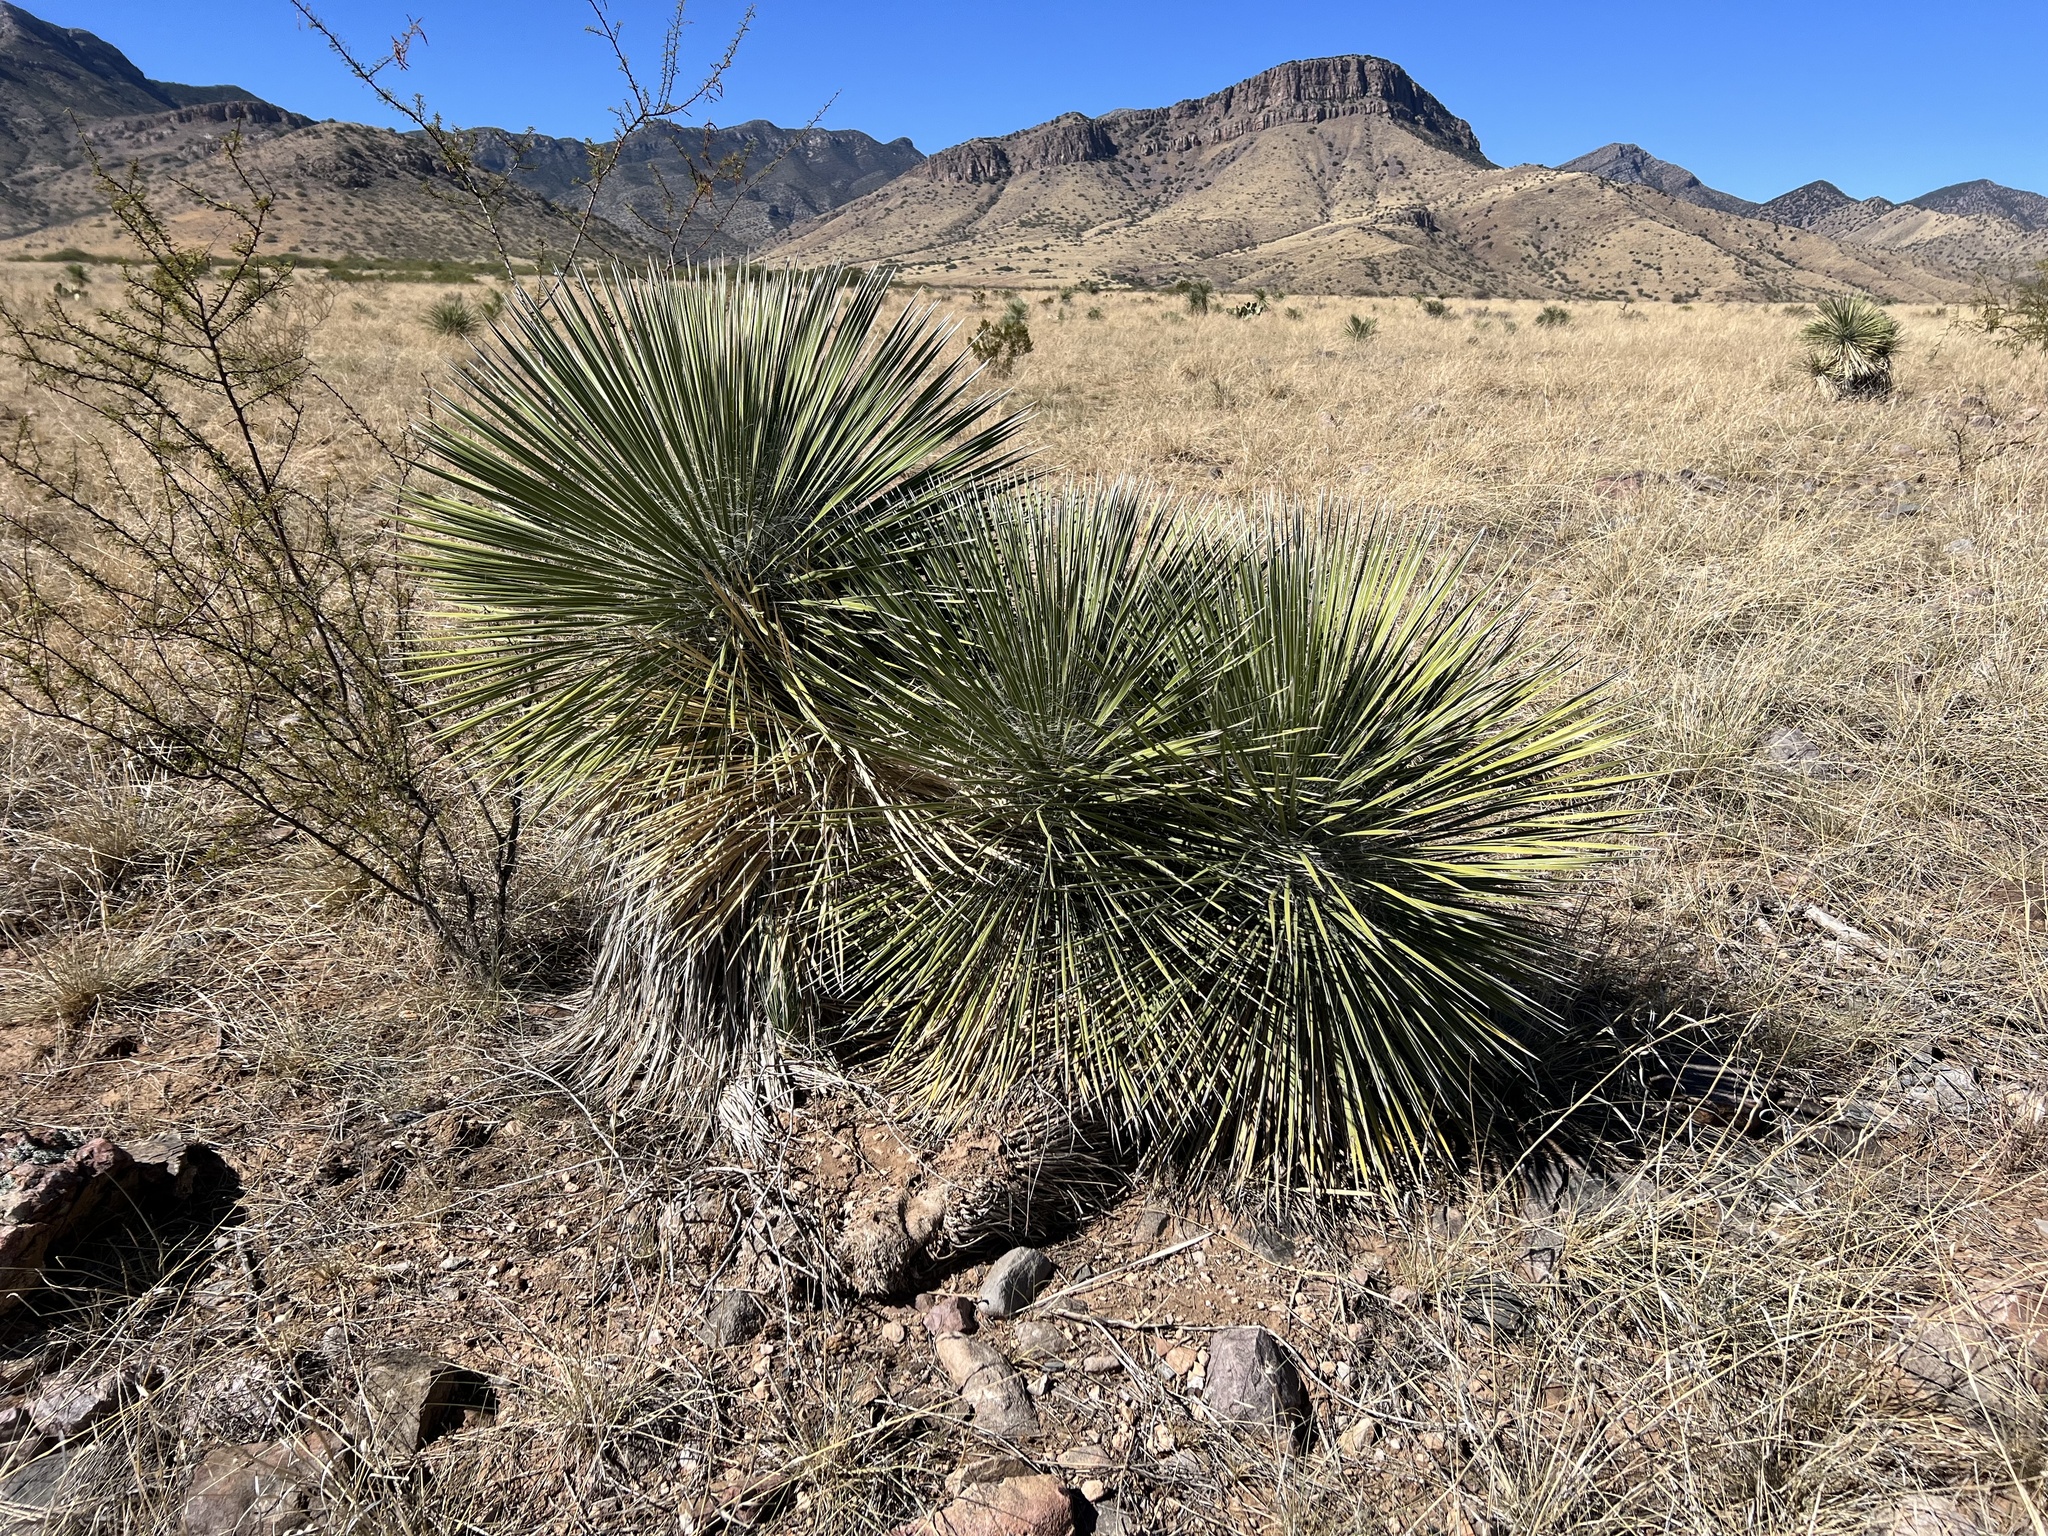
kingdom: Plantae
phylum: Tracheophyta
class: Liliopsida
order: Asparagales
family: Asparagaceae
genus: Yucca
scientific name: Yucca elata
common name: Palmella
